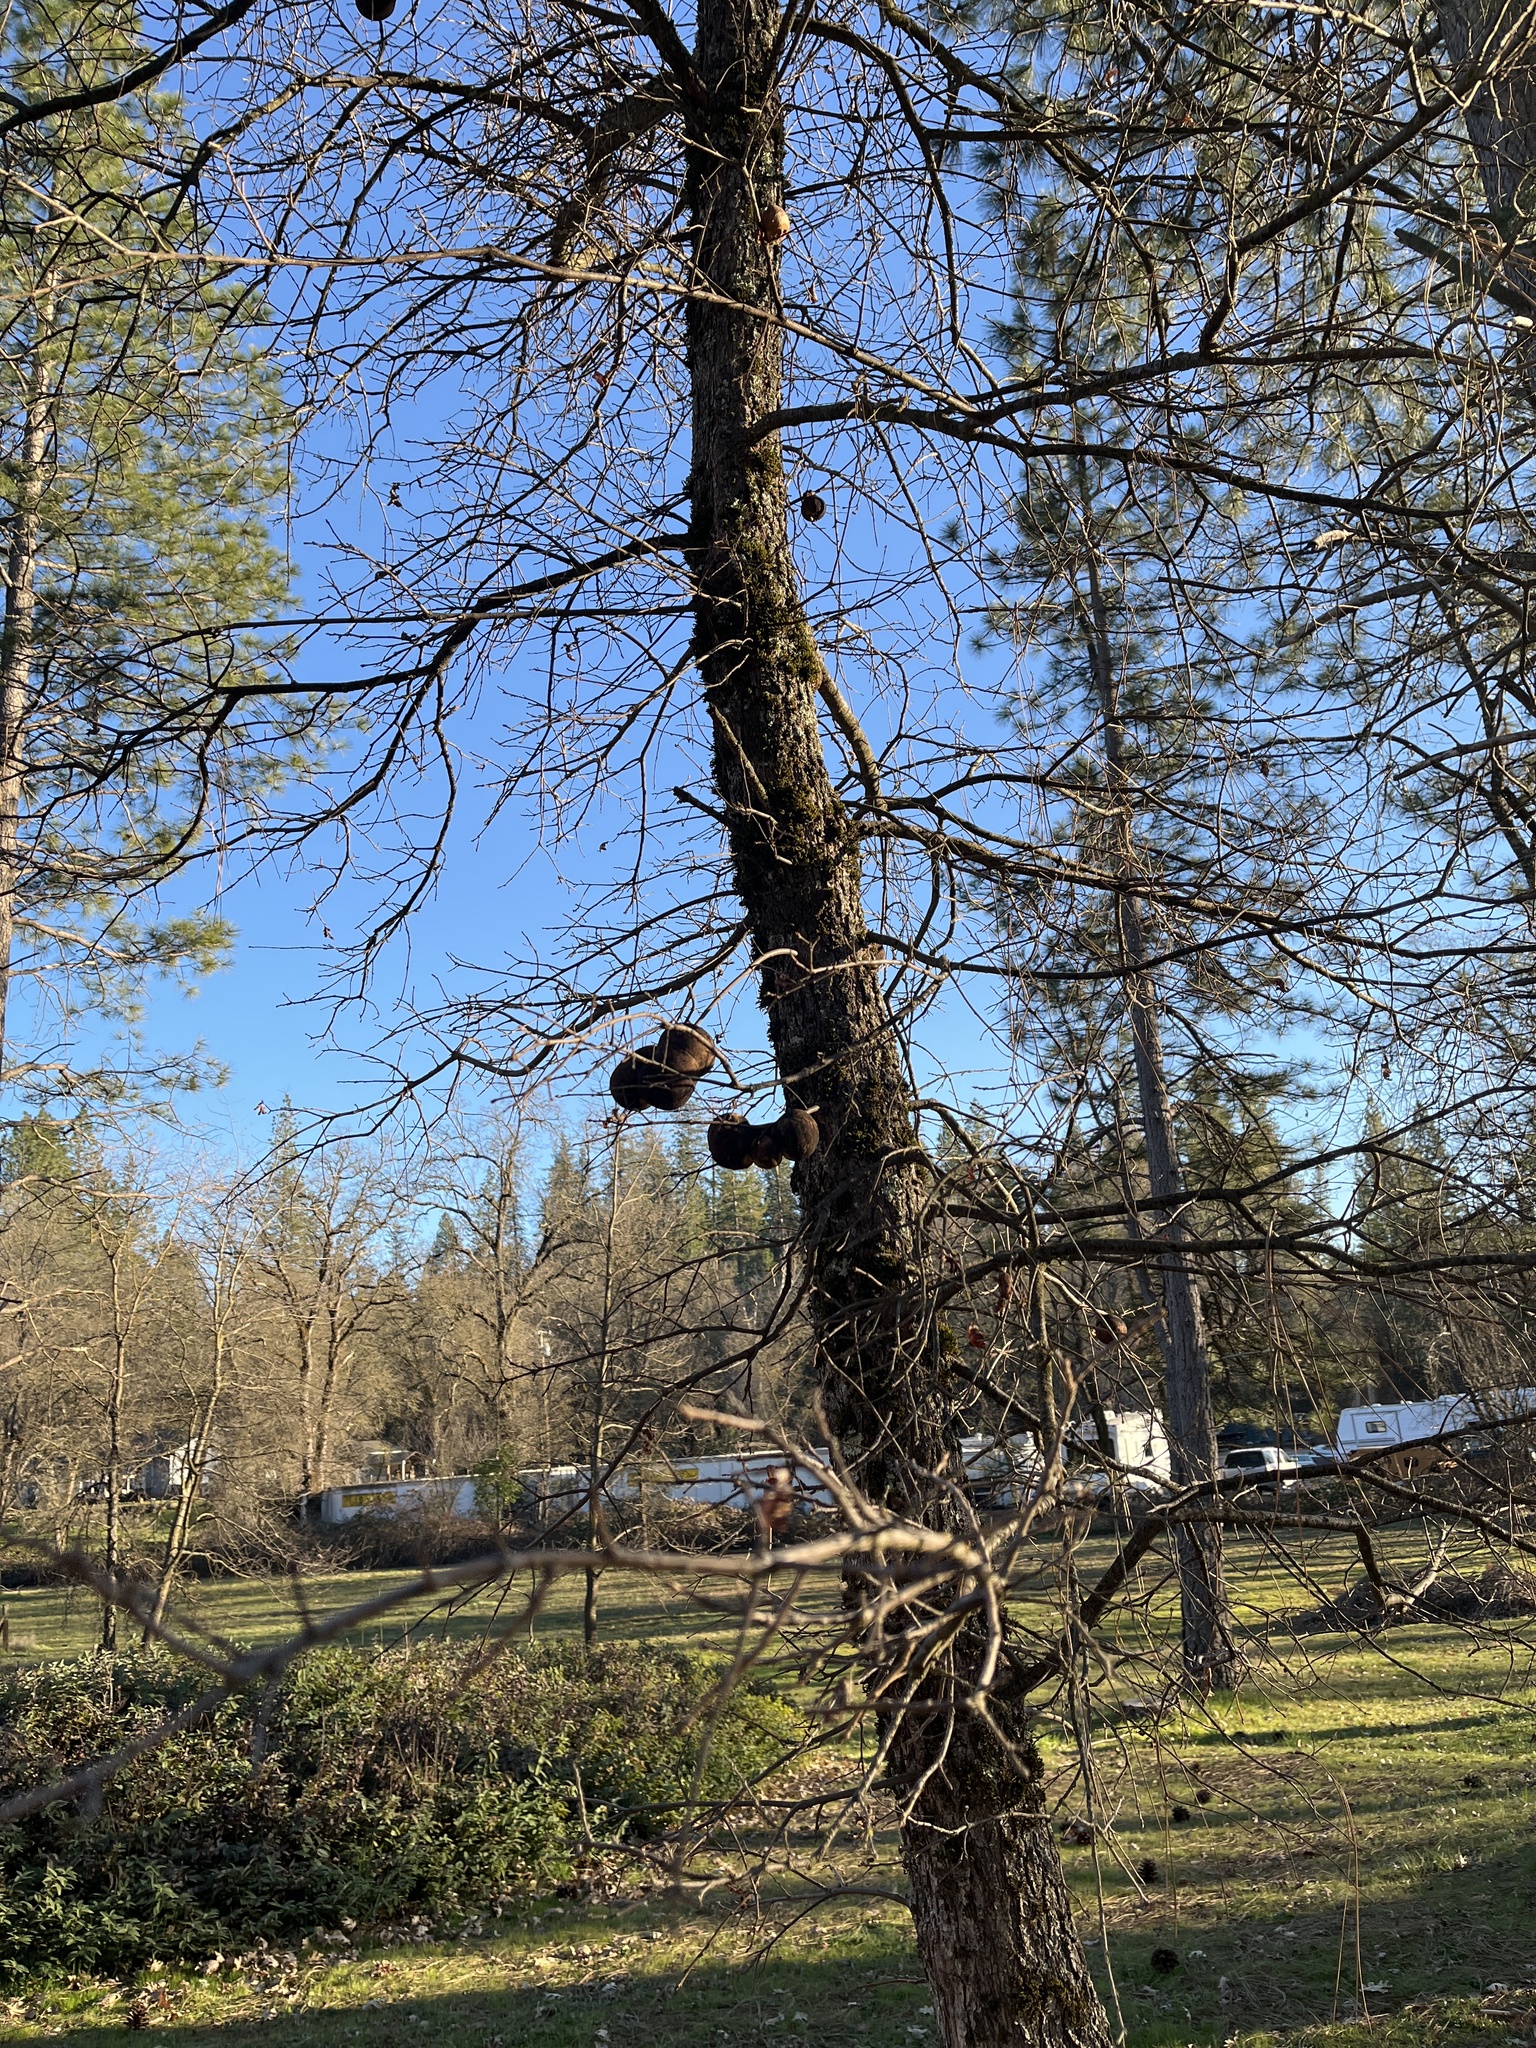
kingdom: Animalia
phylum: Arthropoda
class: Insecta
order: Hymenoptera
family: Cynipidae
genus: Andricus
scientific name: Andricus quercuscalifornicus
